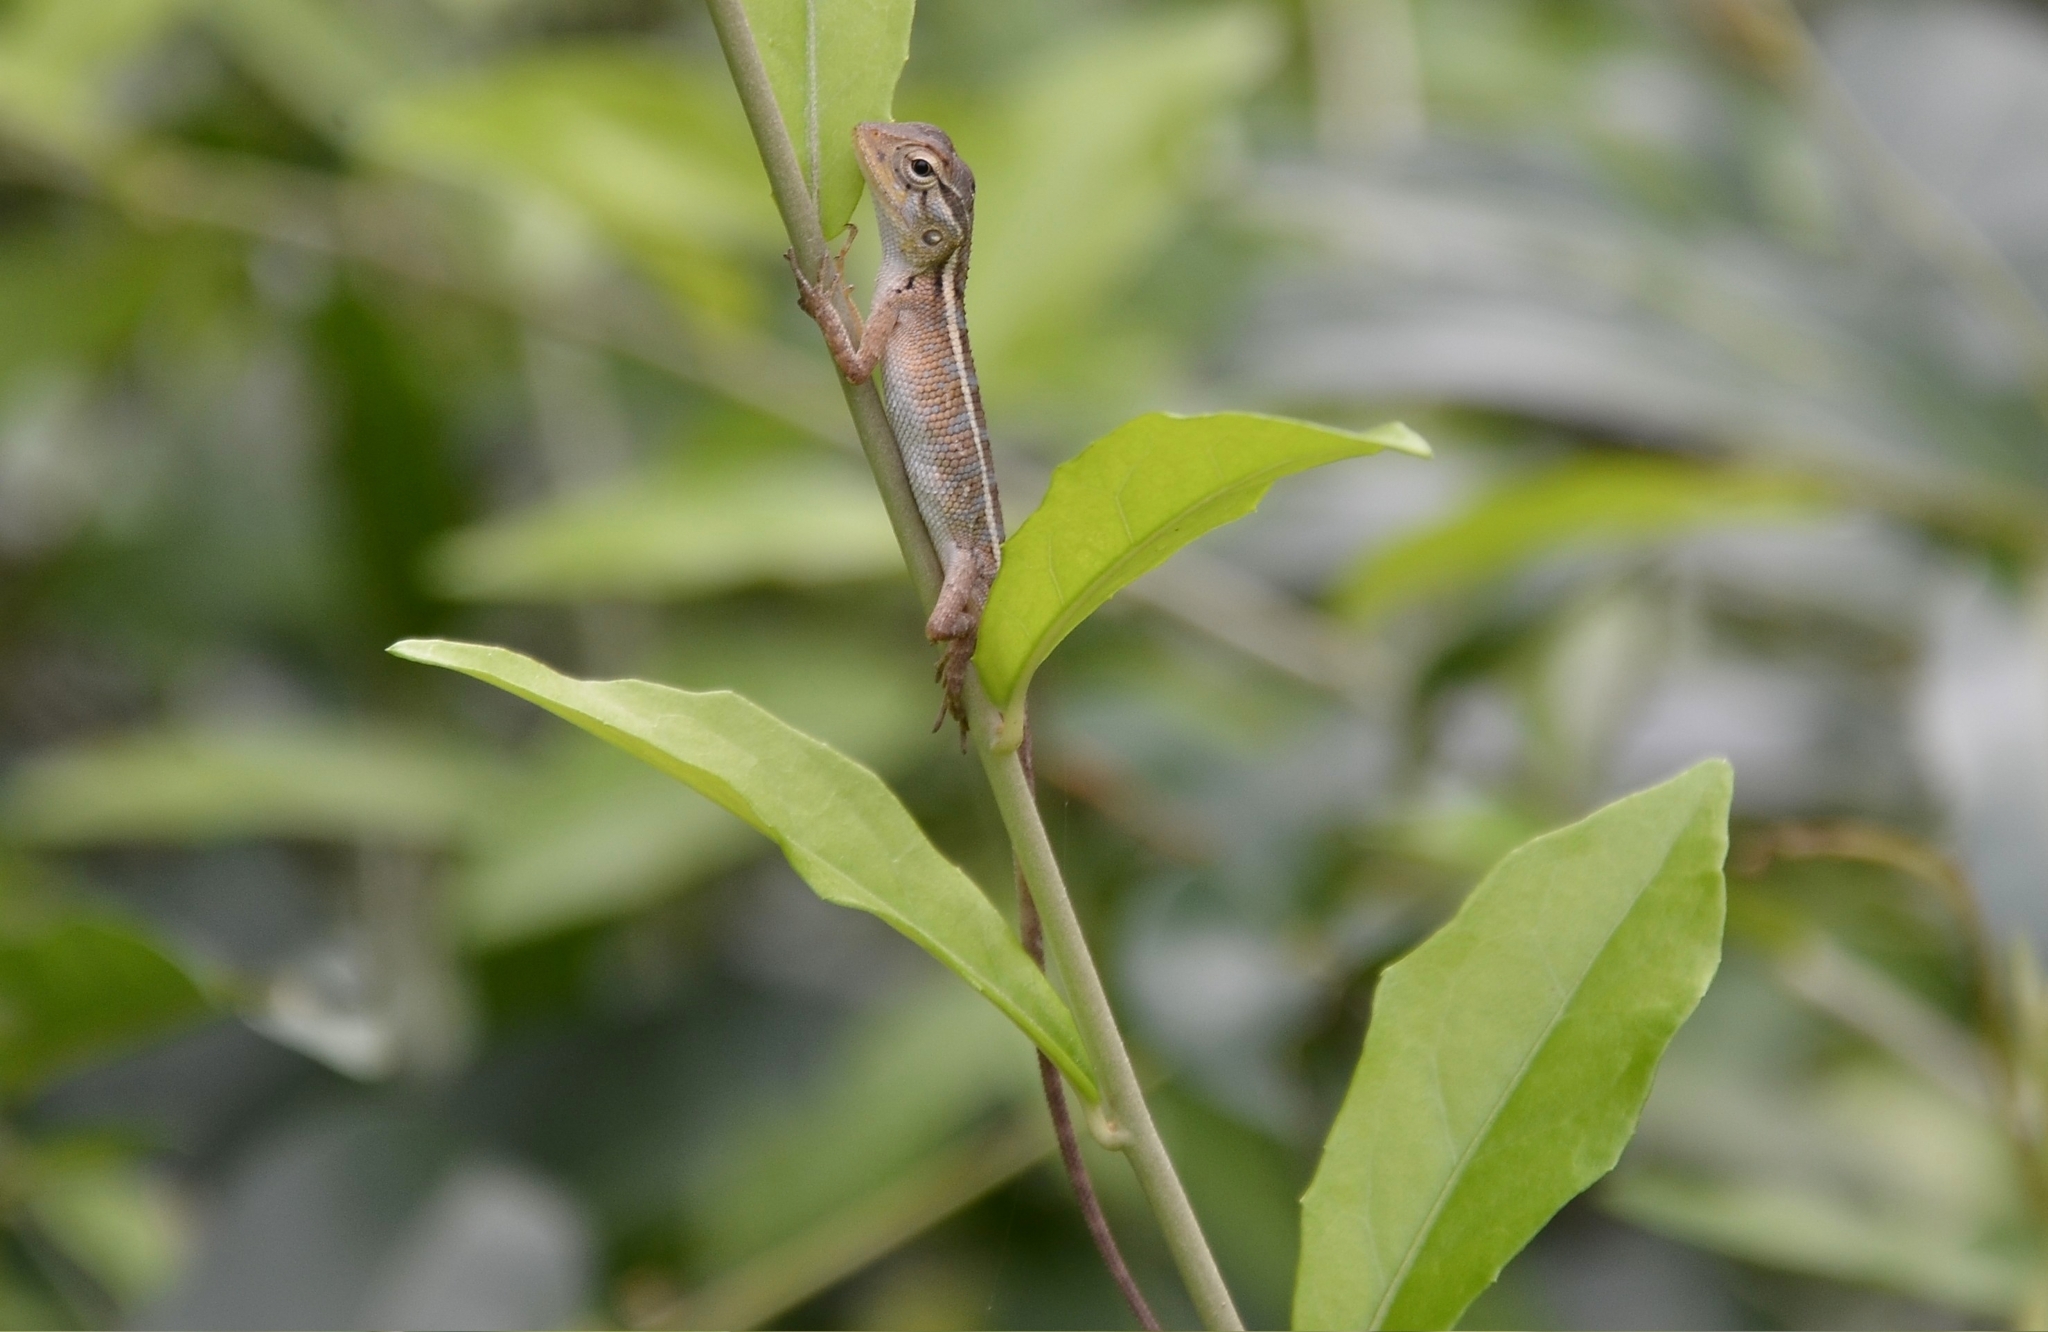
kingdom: Animalia
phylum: Chordata
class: Squamata
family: Agamidae
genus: Calotes
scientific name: Calotes versicolor
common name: Oriental garden lizard
